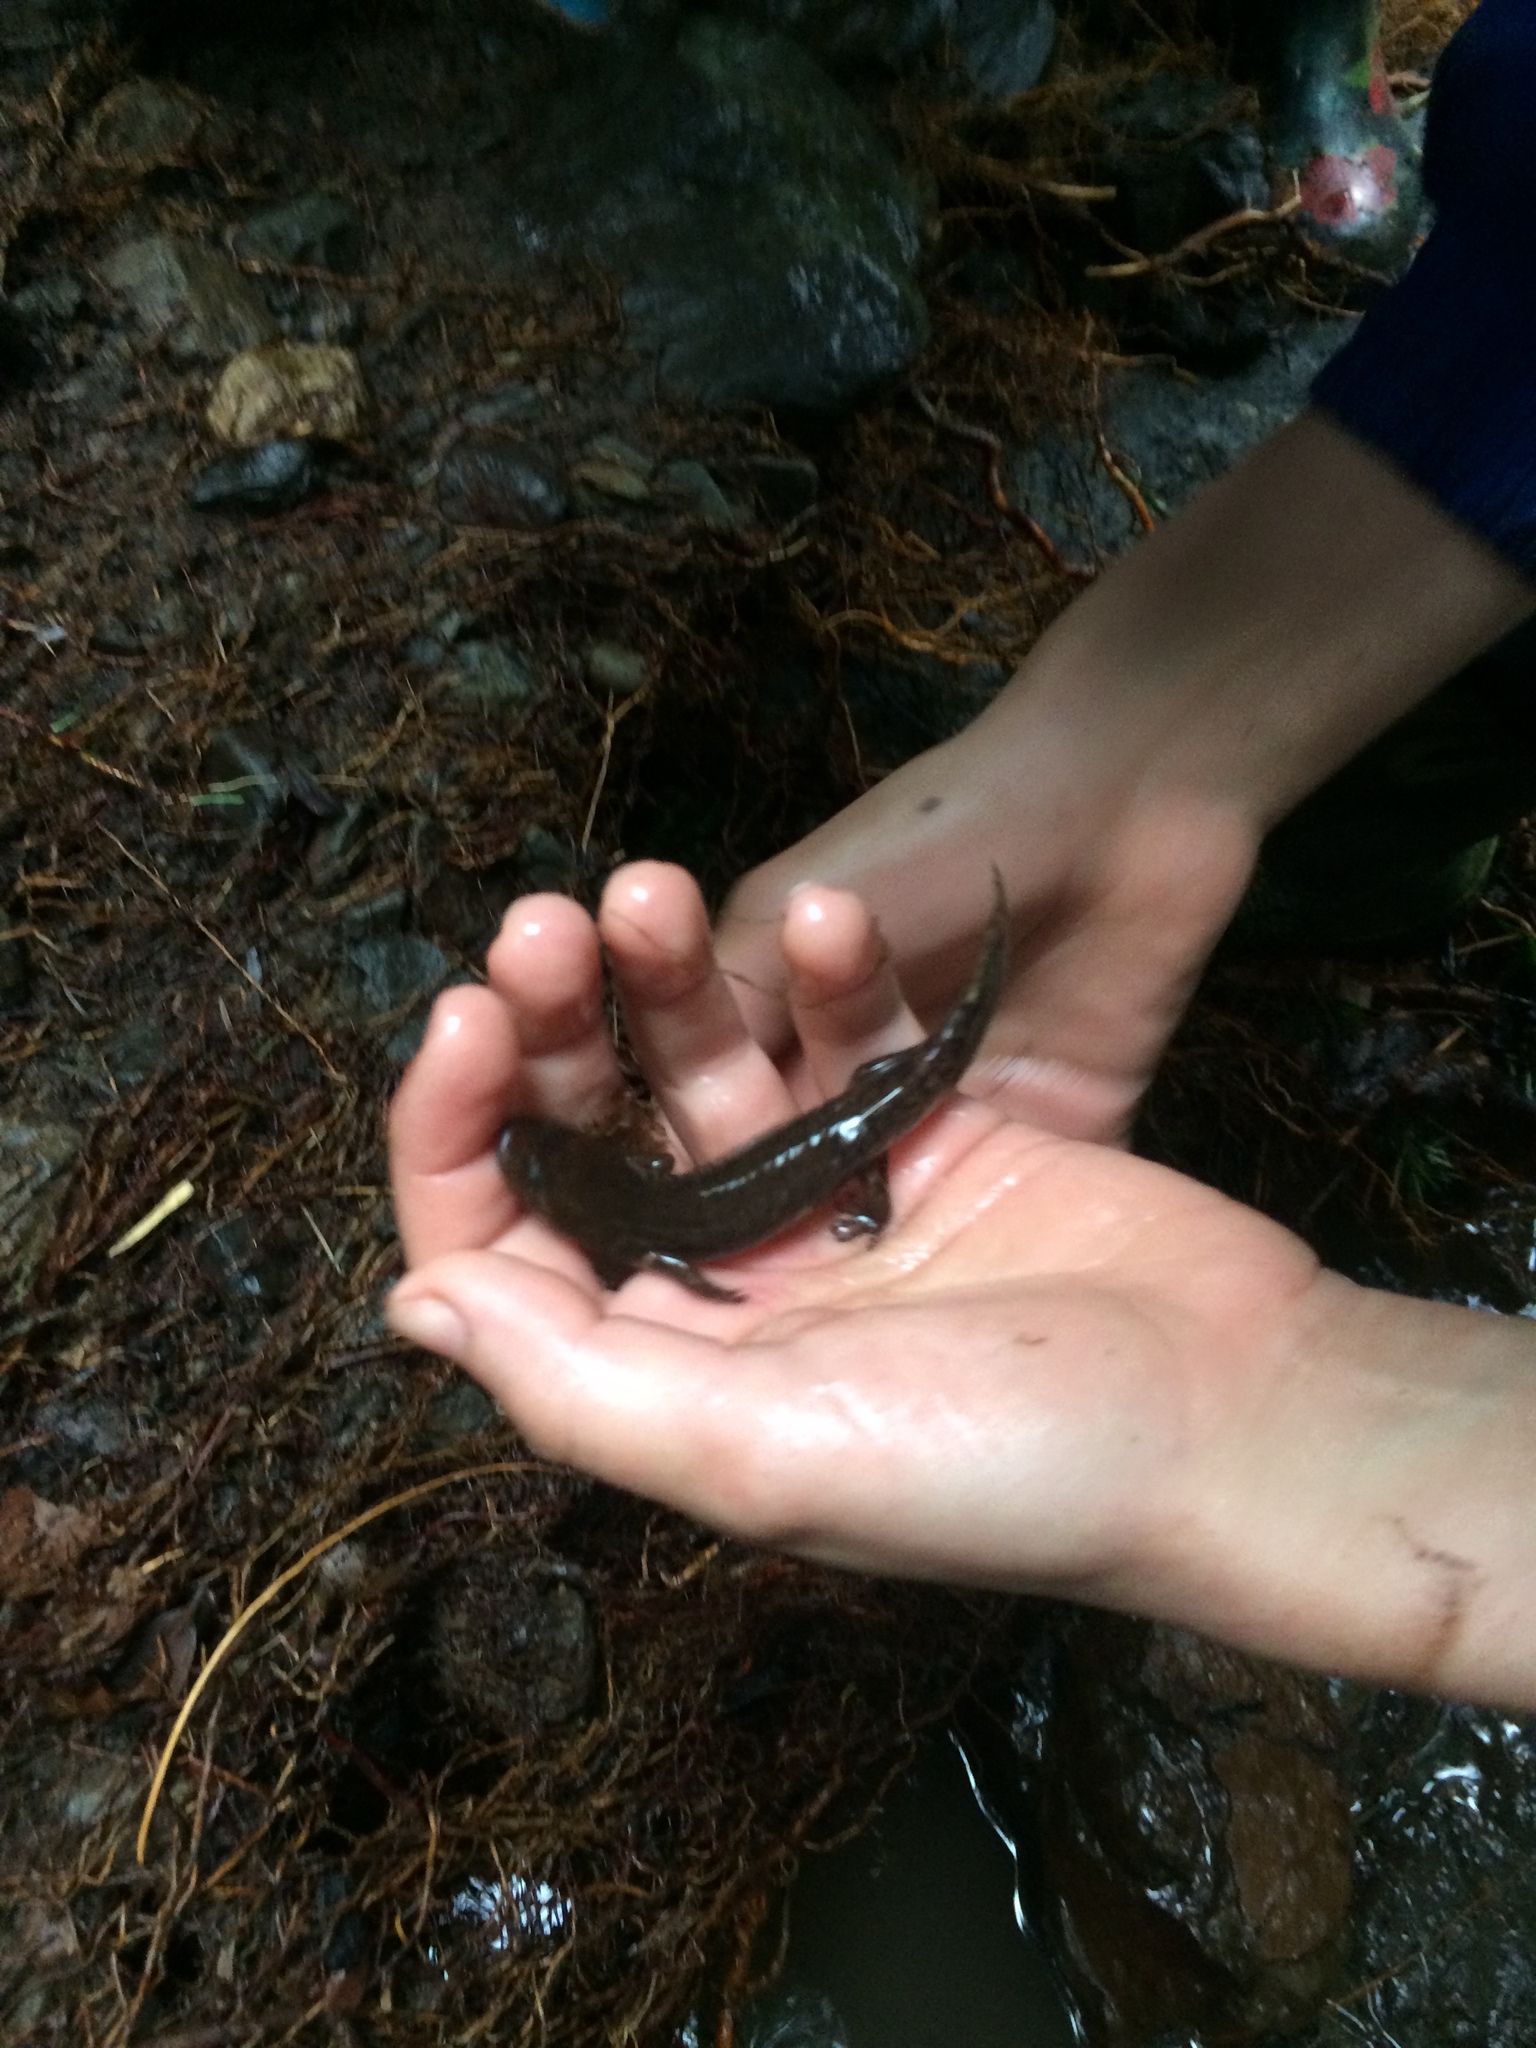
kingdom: Animalia
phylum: Chordata
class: Amphibia
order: Caudata
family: Ambystomatidae
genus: Dicamptodon
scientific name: Dicamptodon ensatus
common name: California giant salamander
